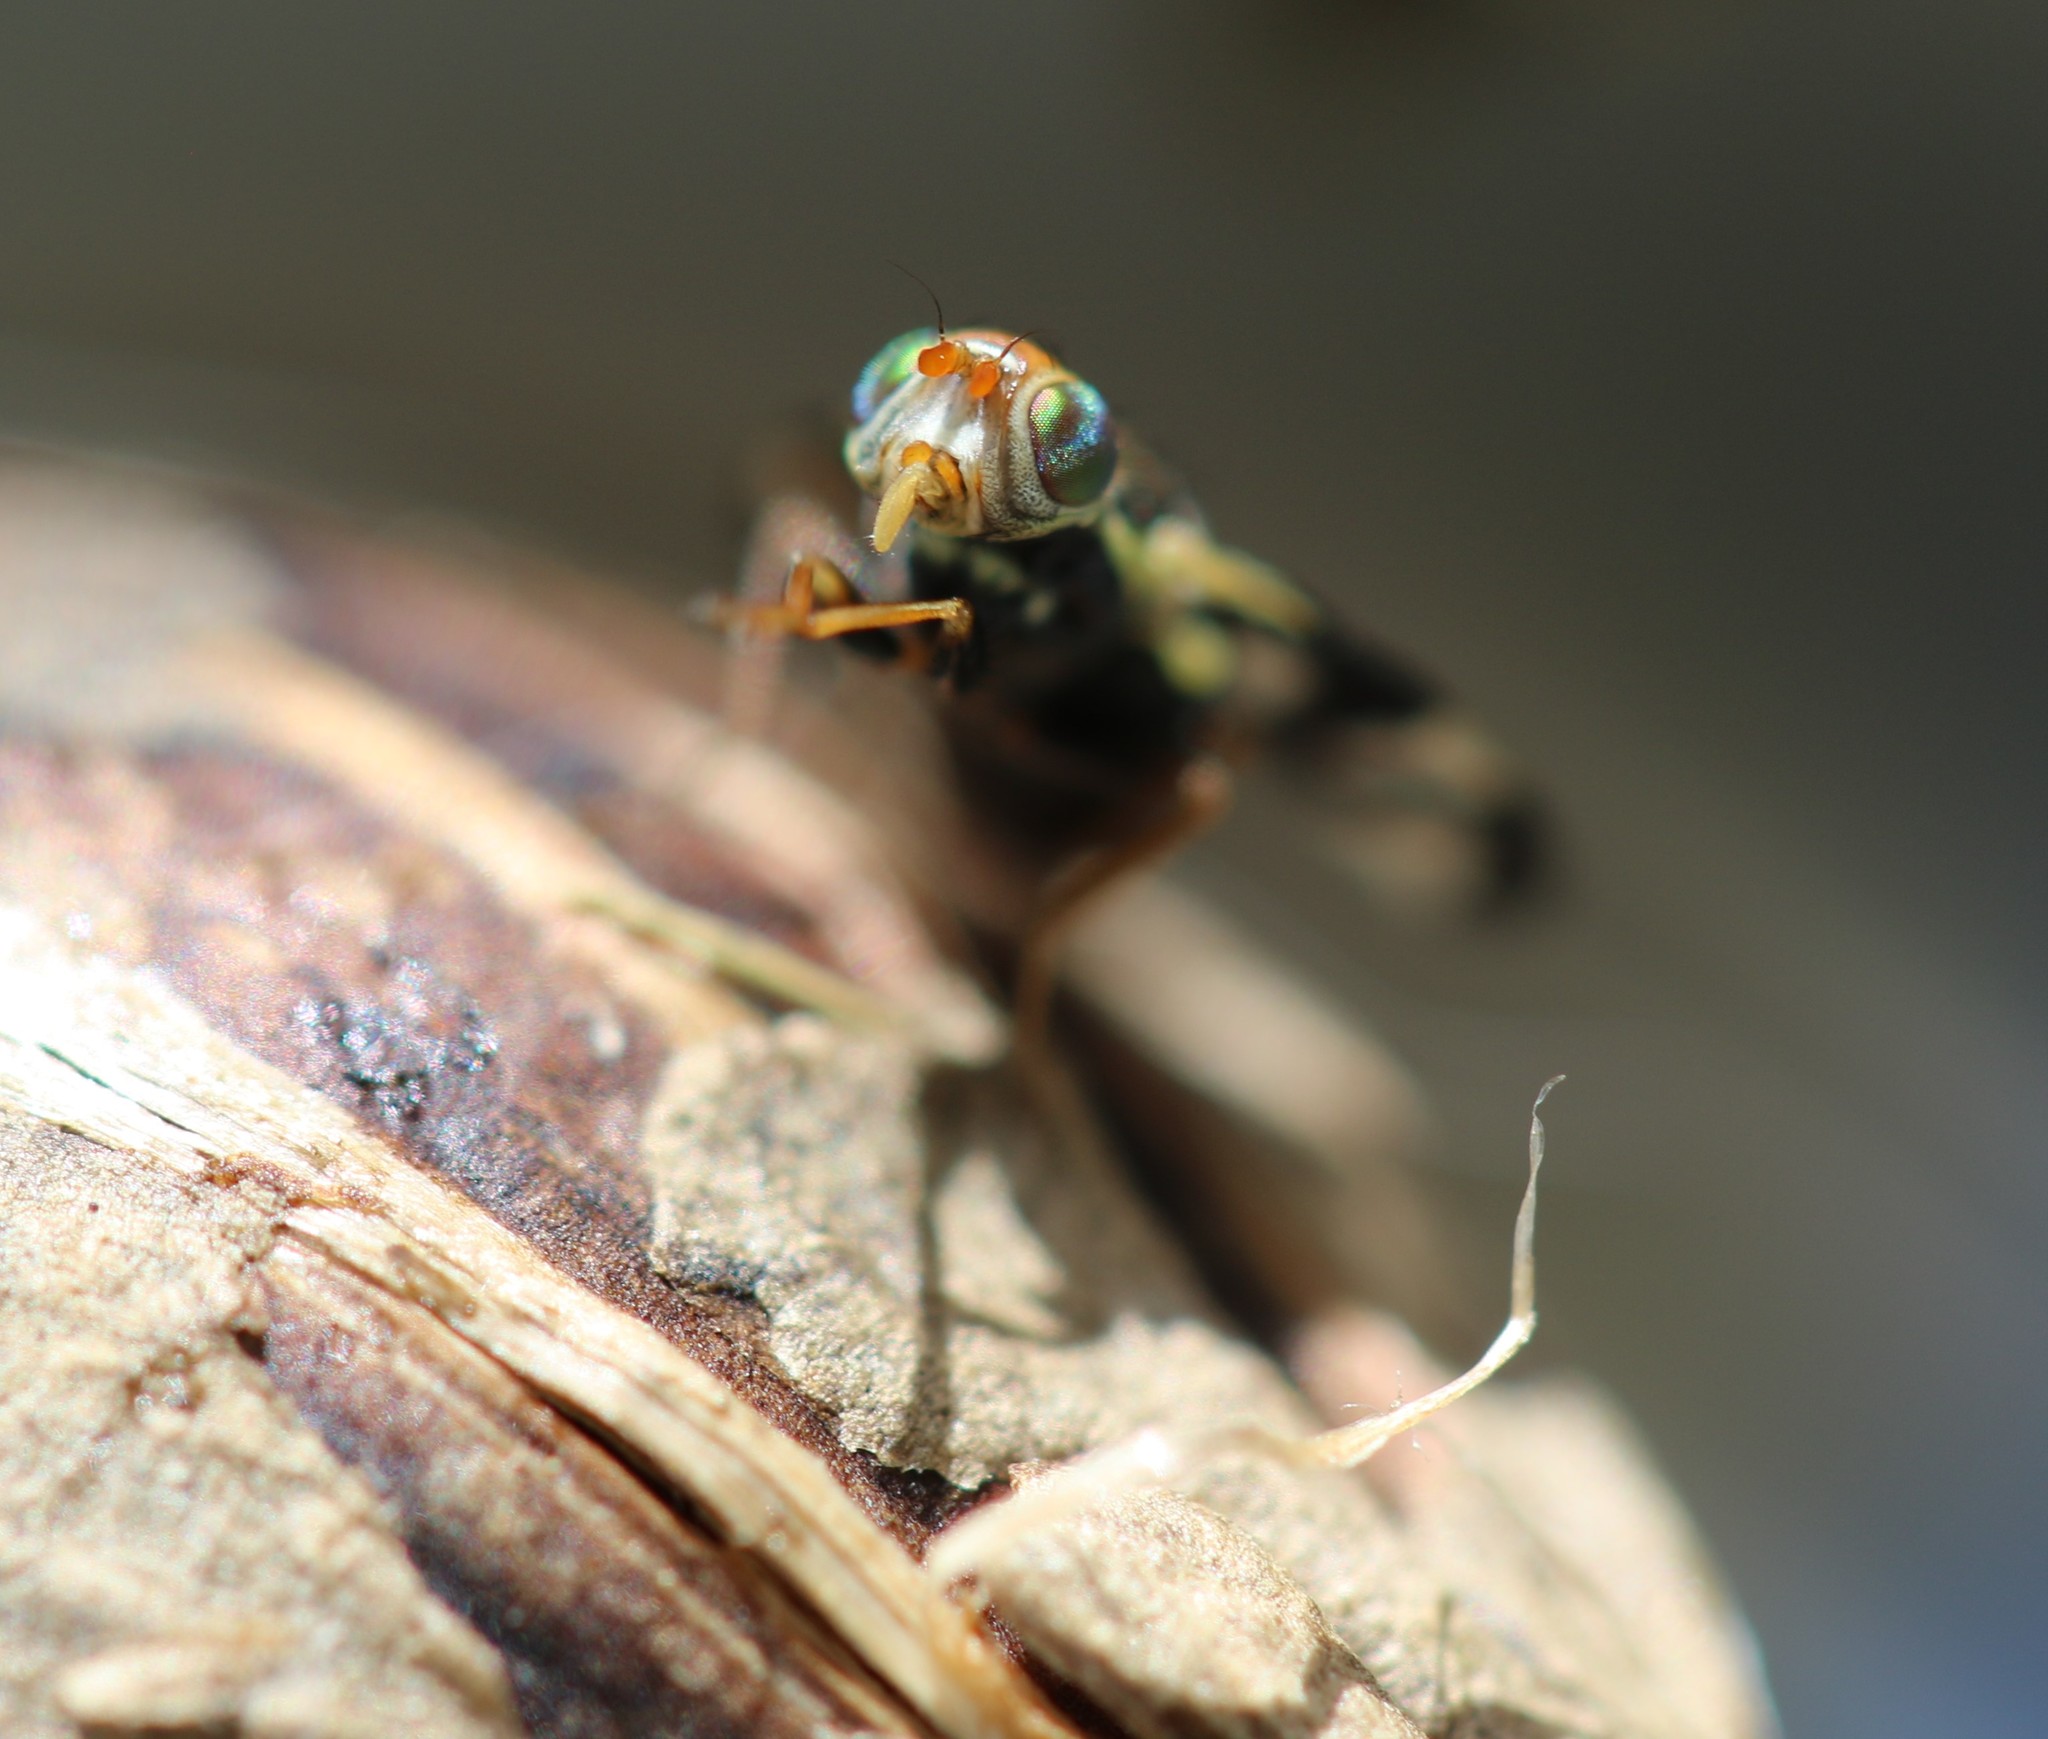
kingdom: Animalia
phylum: Arthropoda
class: Insecta
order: Diptera
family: Tephritidae
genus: Urophora
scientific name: Urophora cardui
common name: Fruit fly
